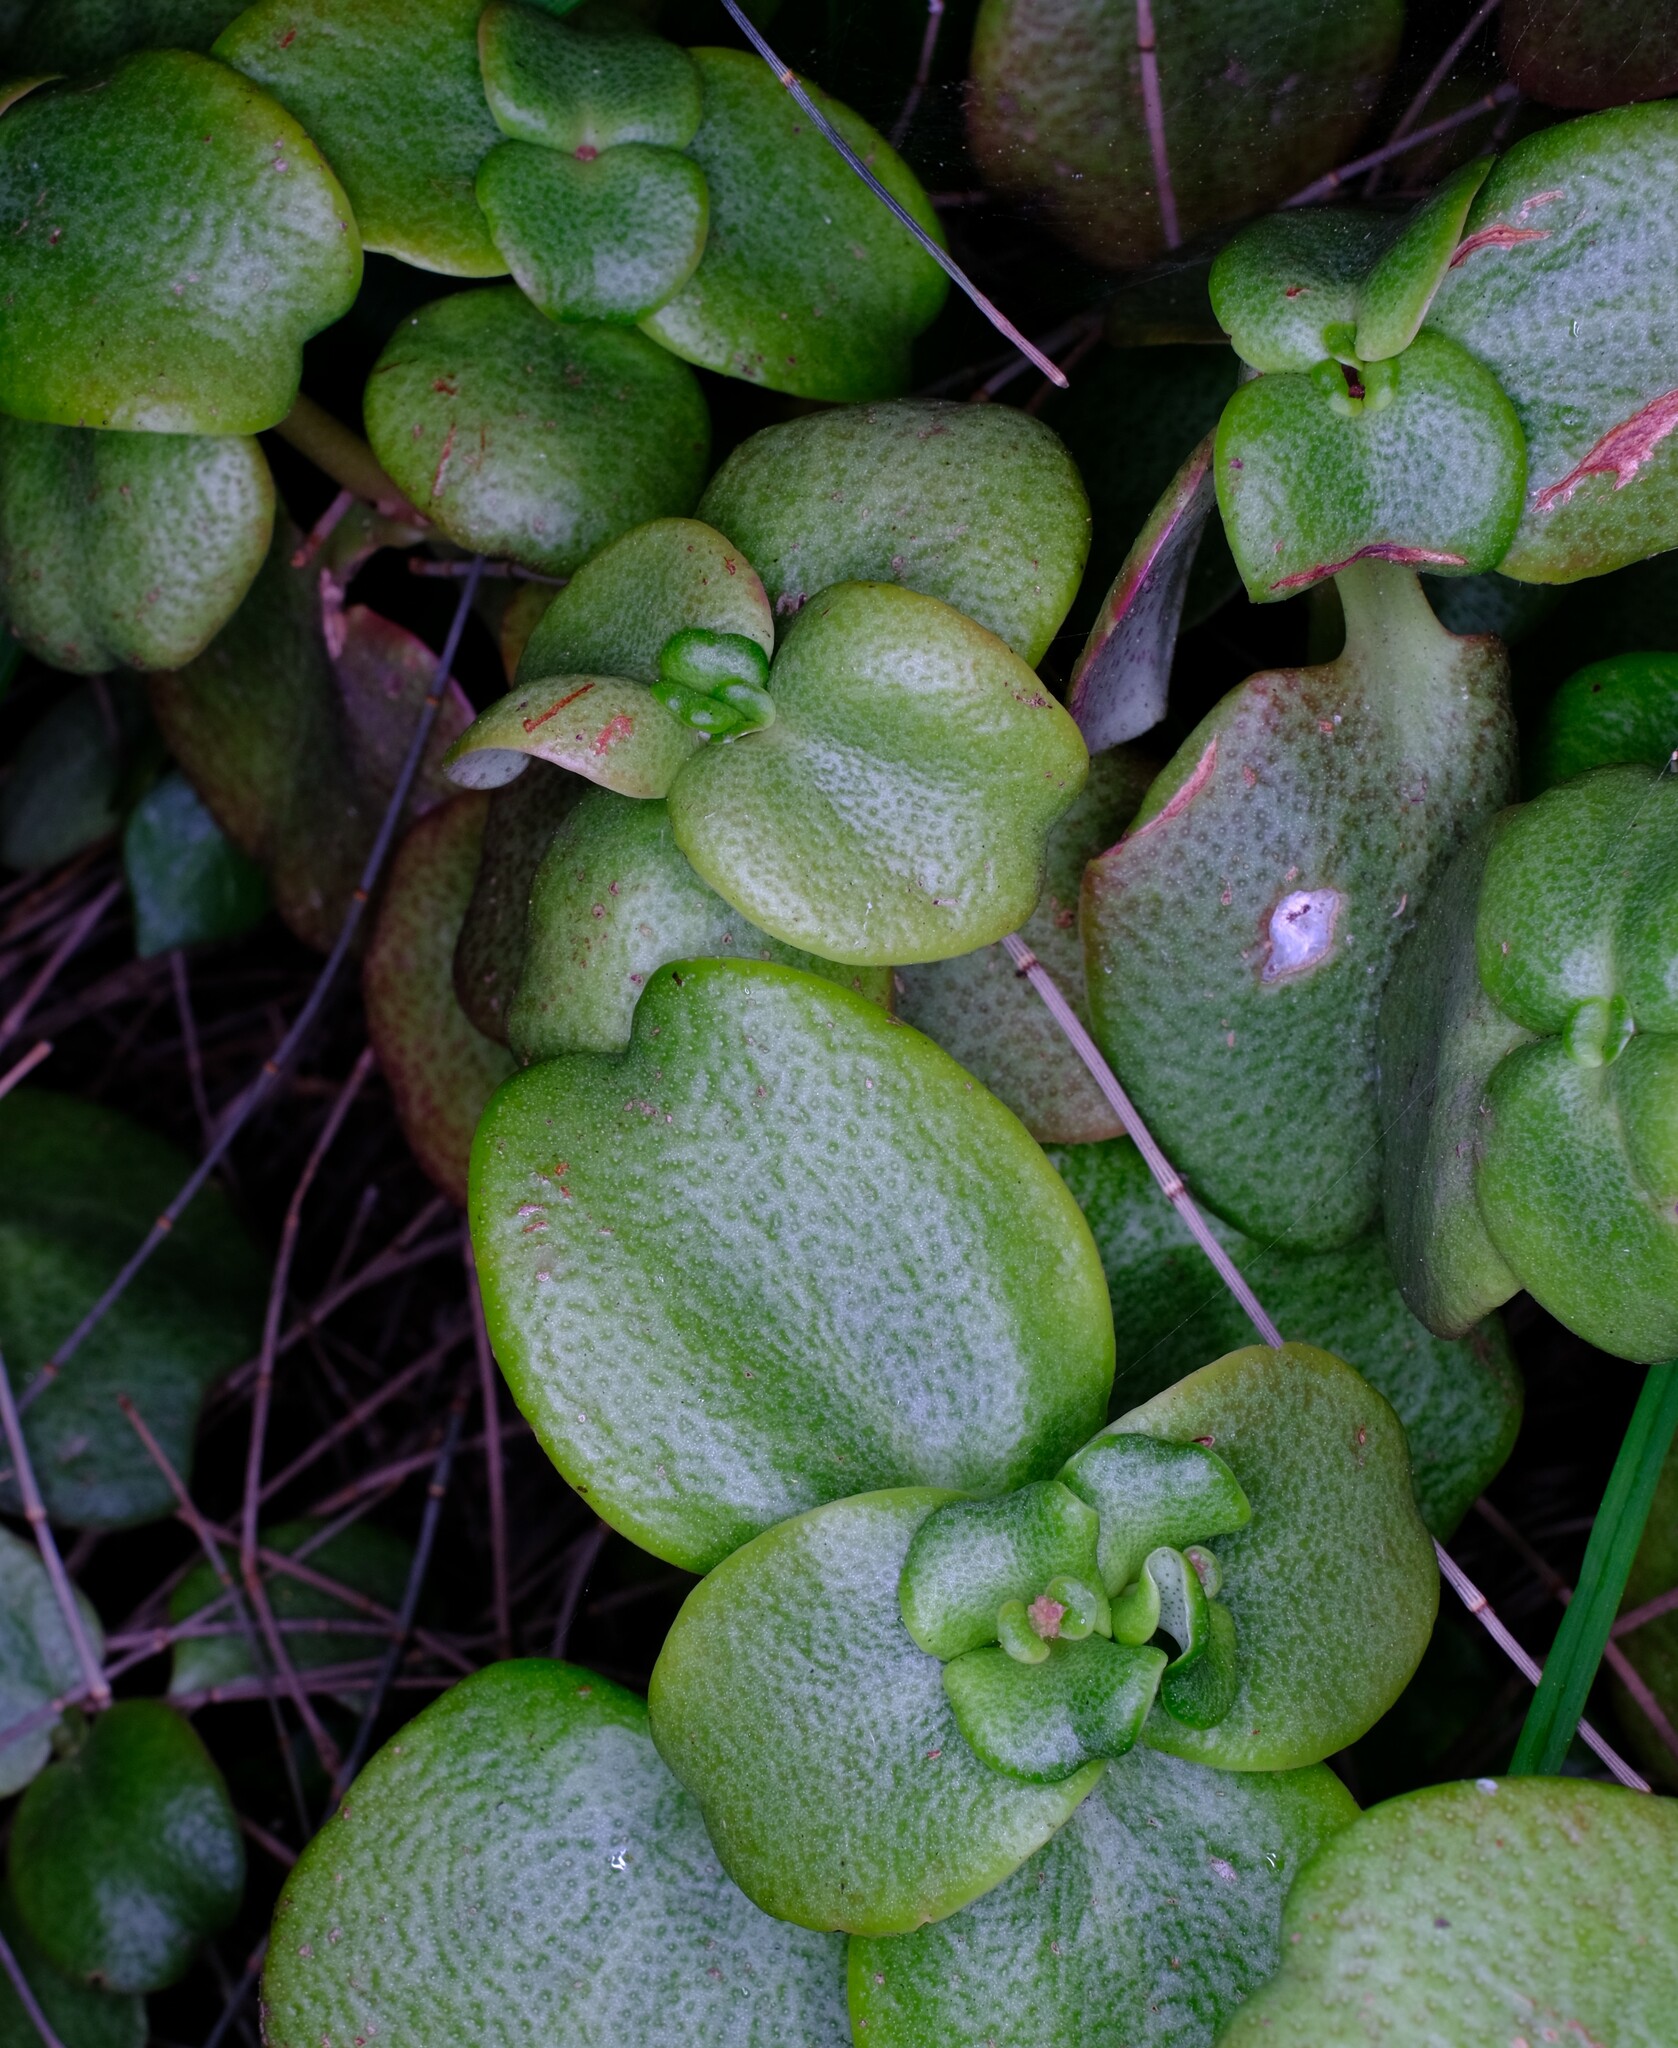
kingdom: Plantae
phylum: Tracheophyta
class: Magnoliopsida
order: Saxifragales
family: Crassulaceae
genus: Crassula
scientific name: Crassula multicava
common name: Cape province pygmyweed
